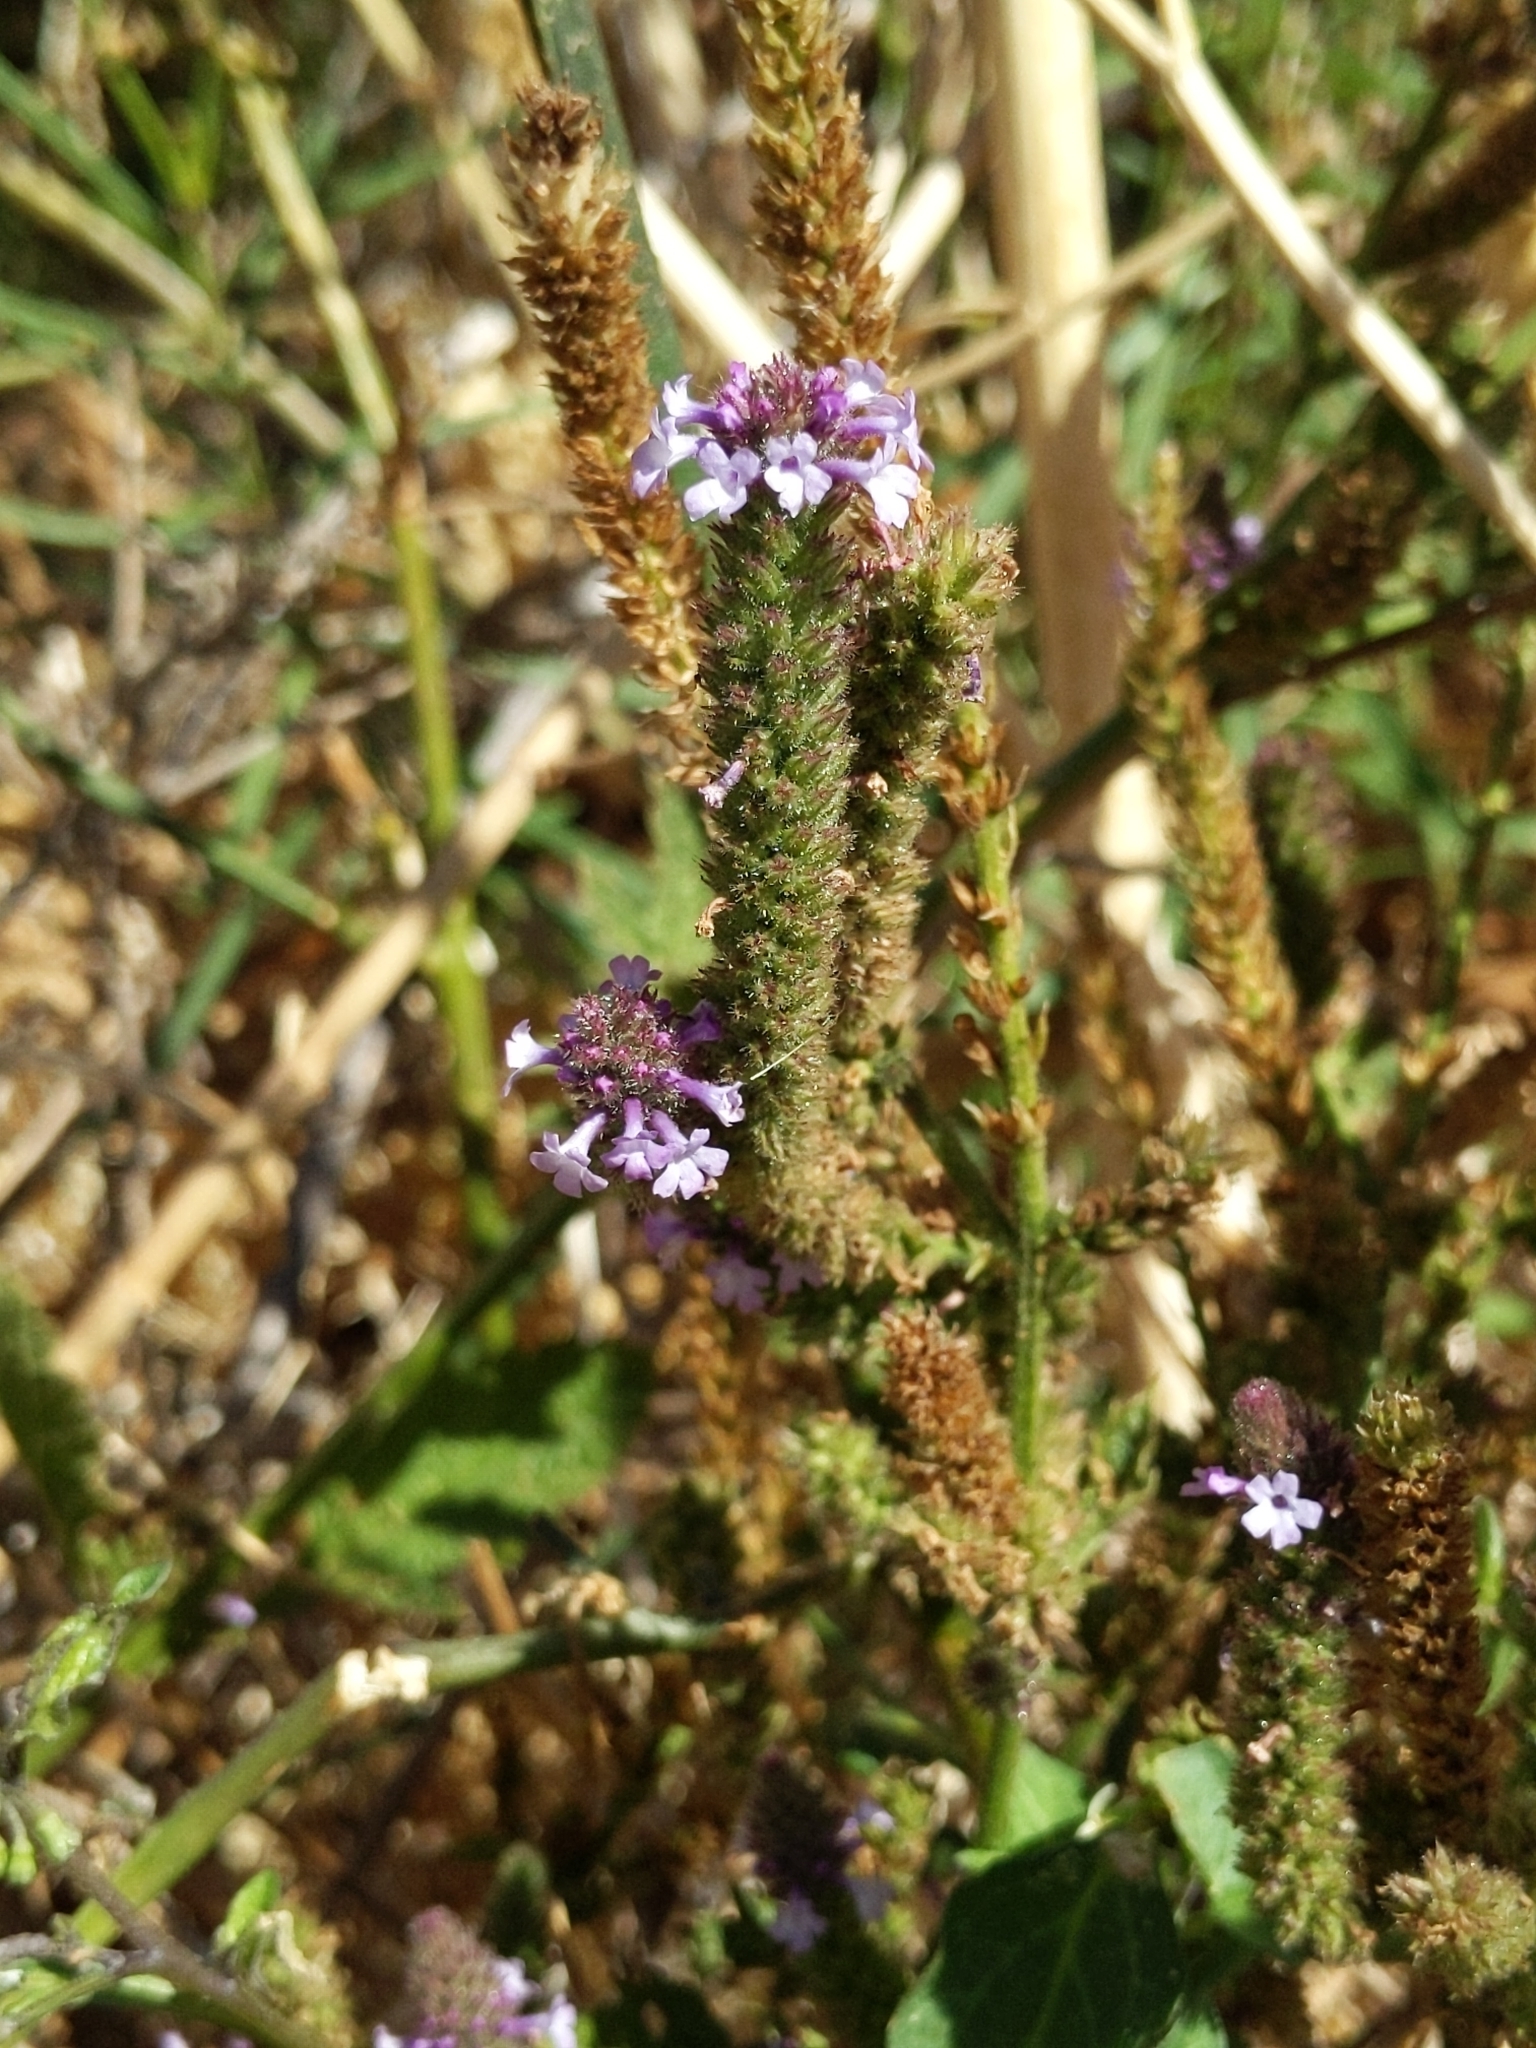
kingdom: Plantae
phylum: Tracheophyta
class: Magnoliopsida
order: Lamiales
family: Verbenaceae
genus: Verbena
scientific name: Verbena lasiostachys
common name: Vervain
